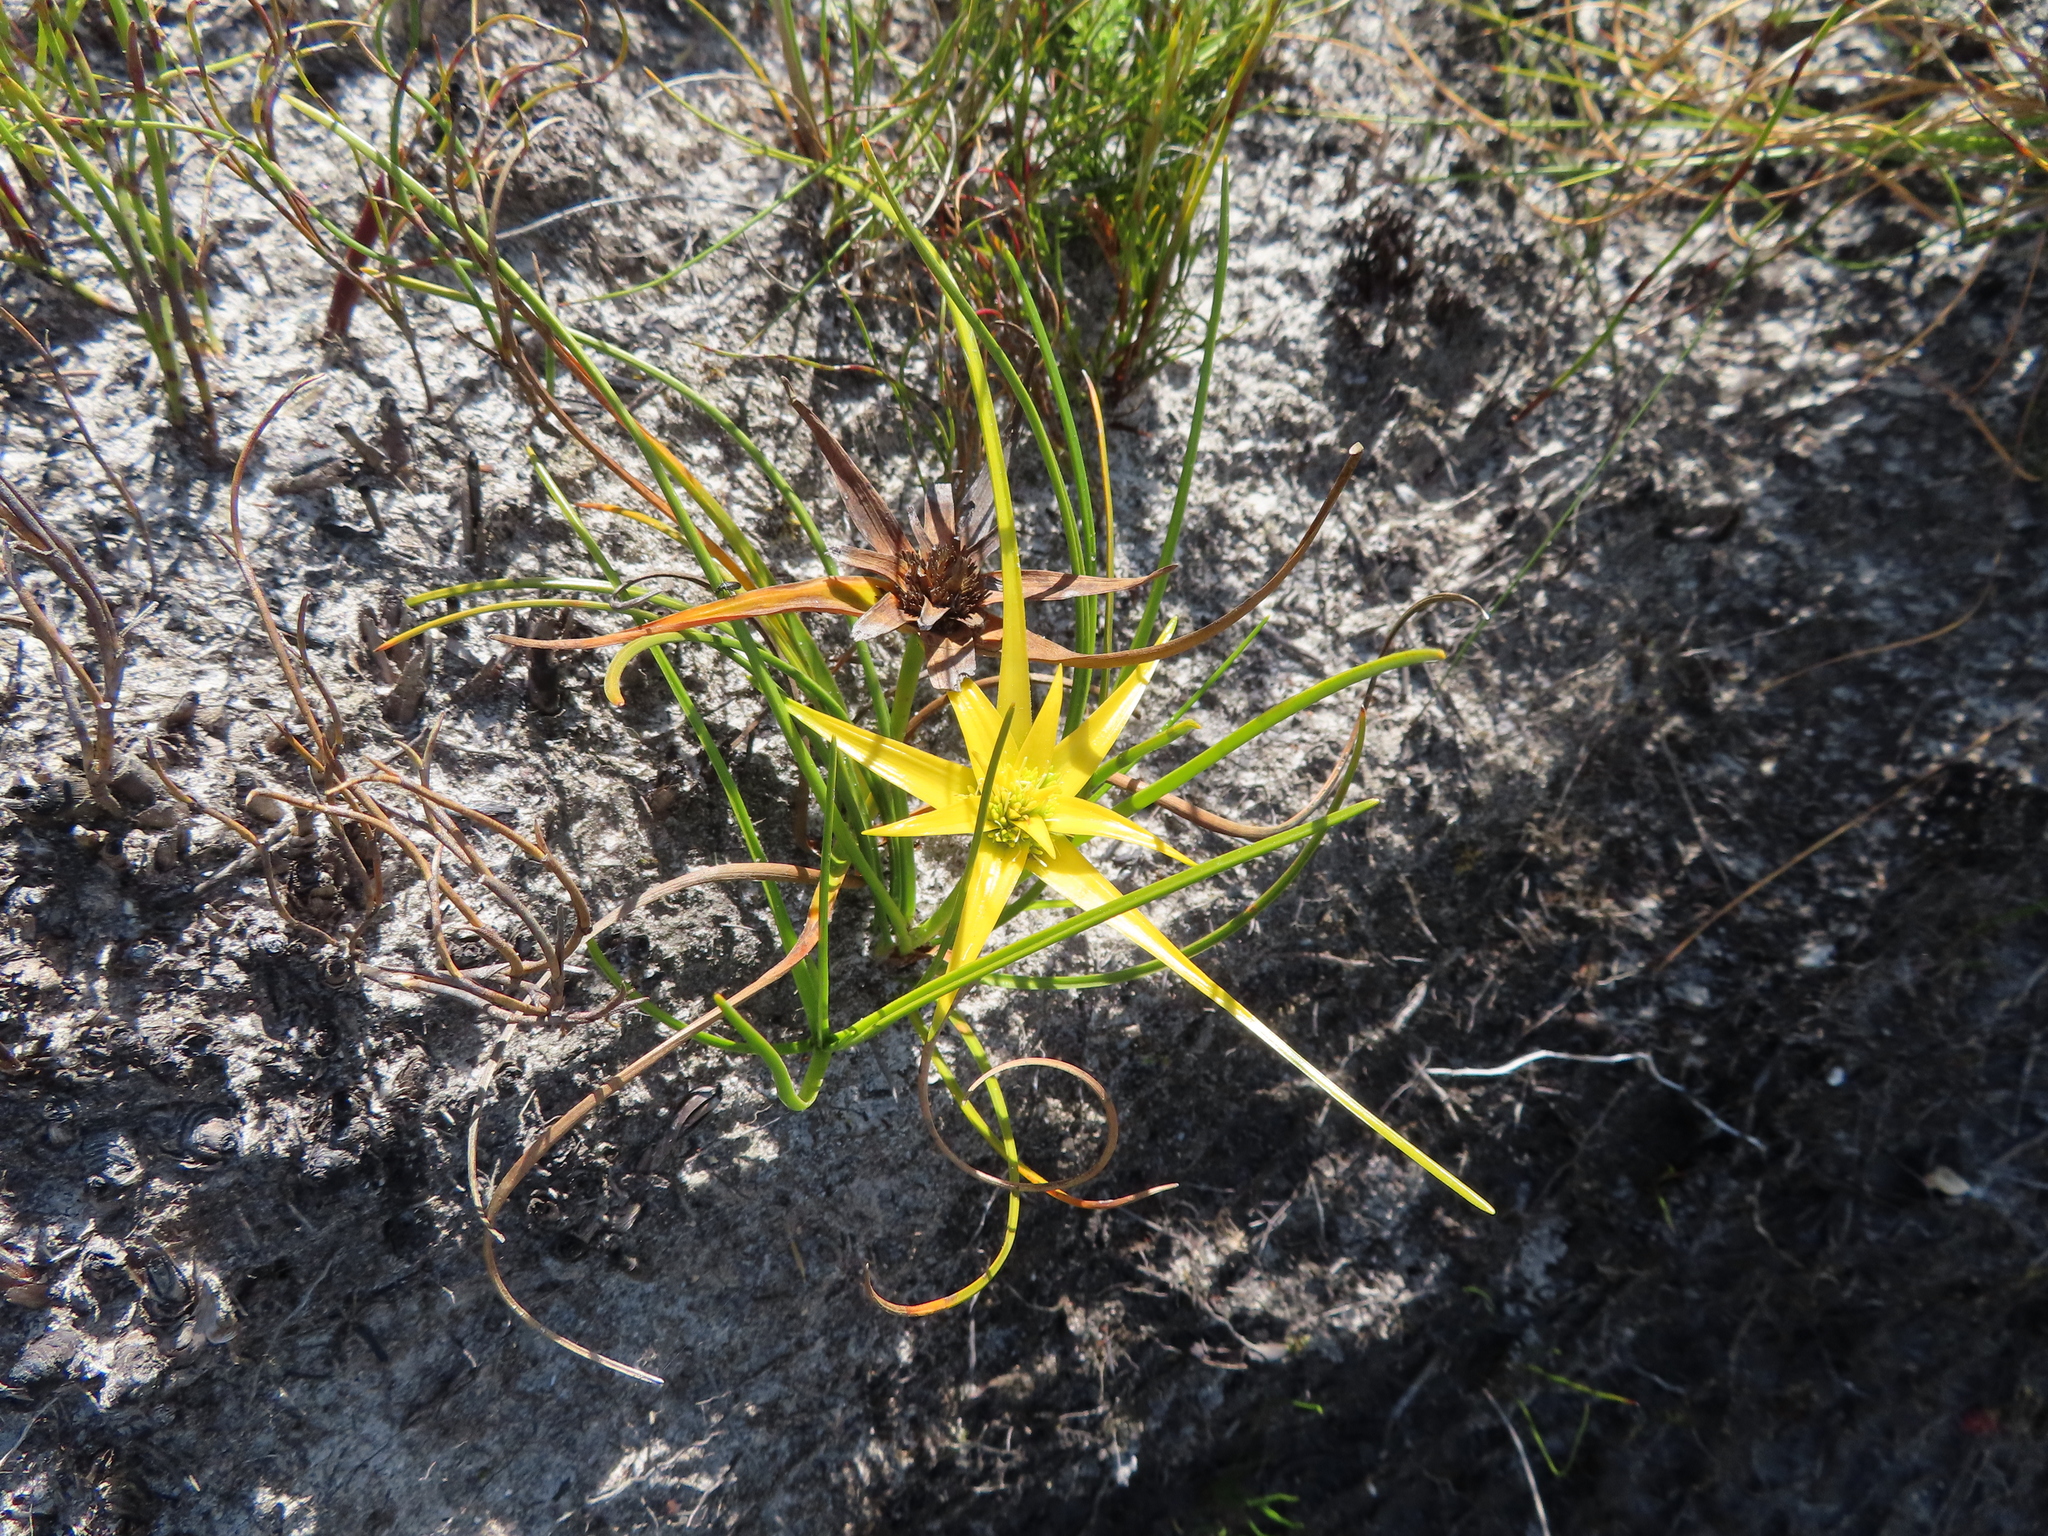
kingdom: Plantae
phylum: Tracheophyta
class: Liliopsida
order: Poales
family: Cyperaceae
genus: Ficinia
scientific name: Ficinia radiata
